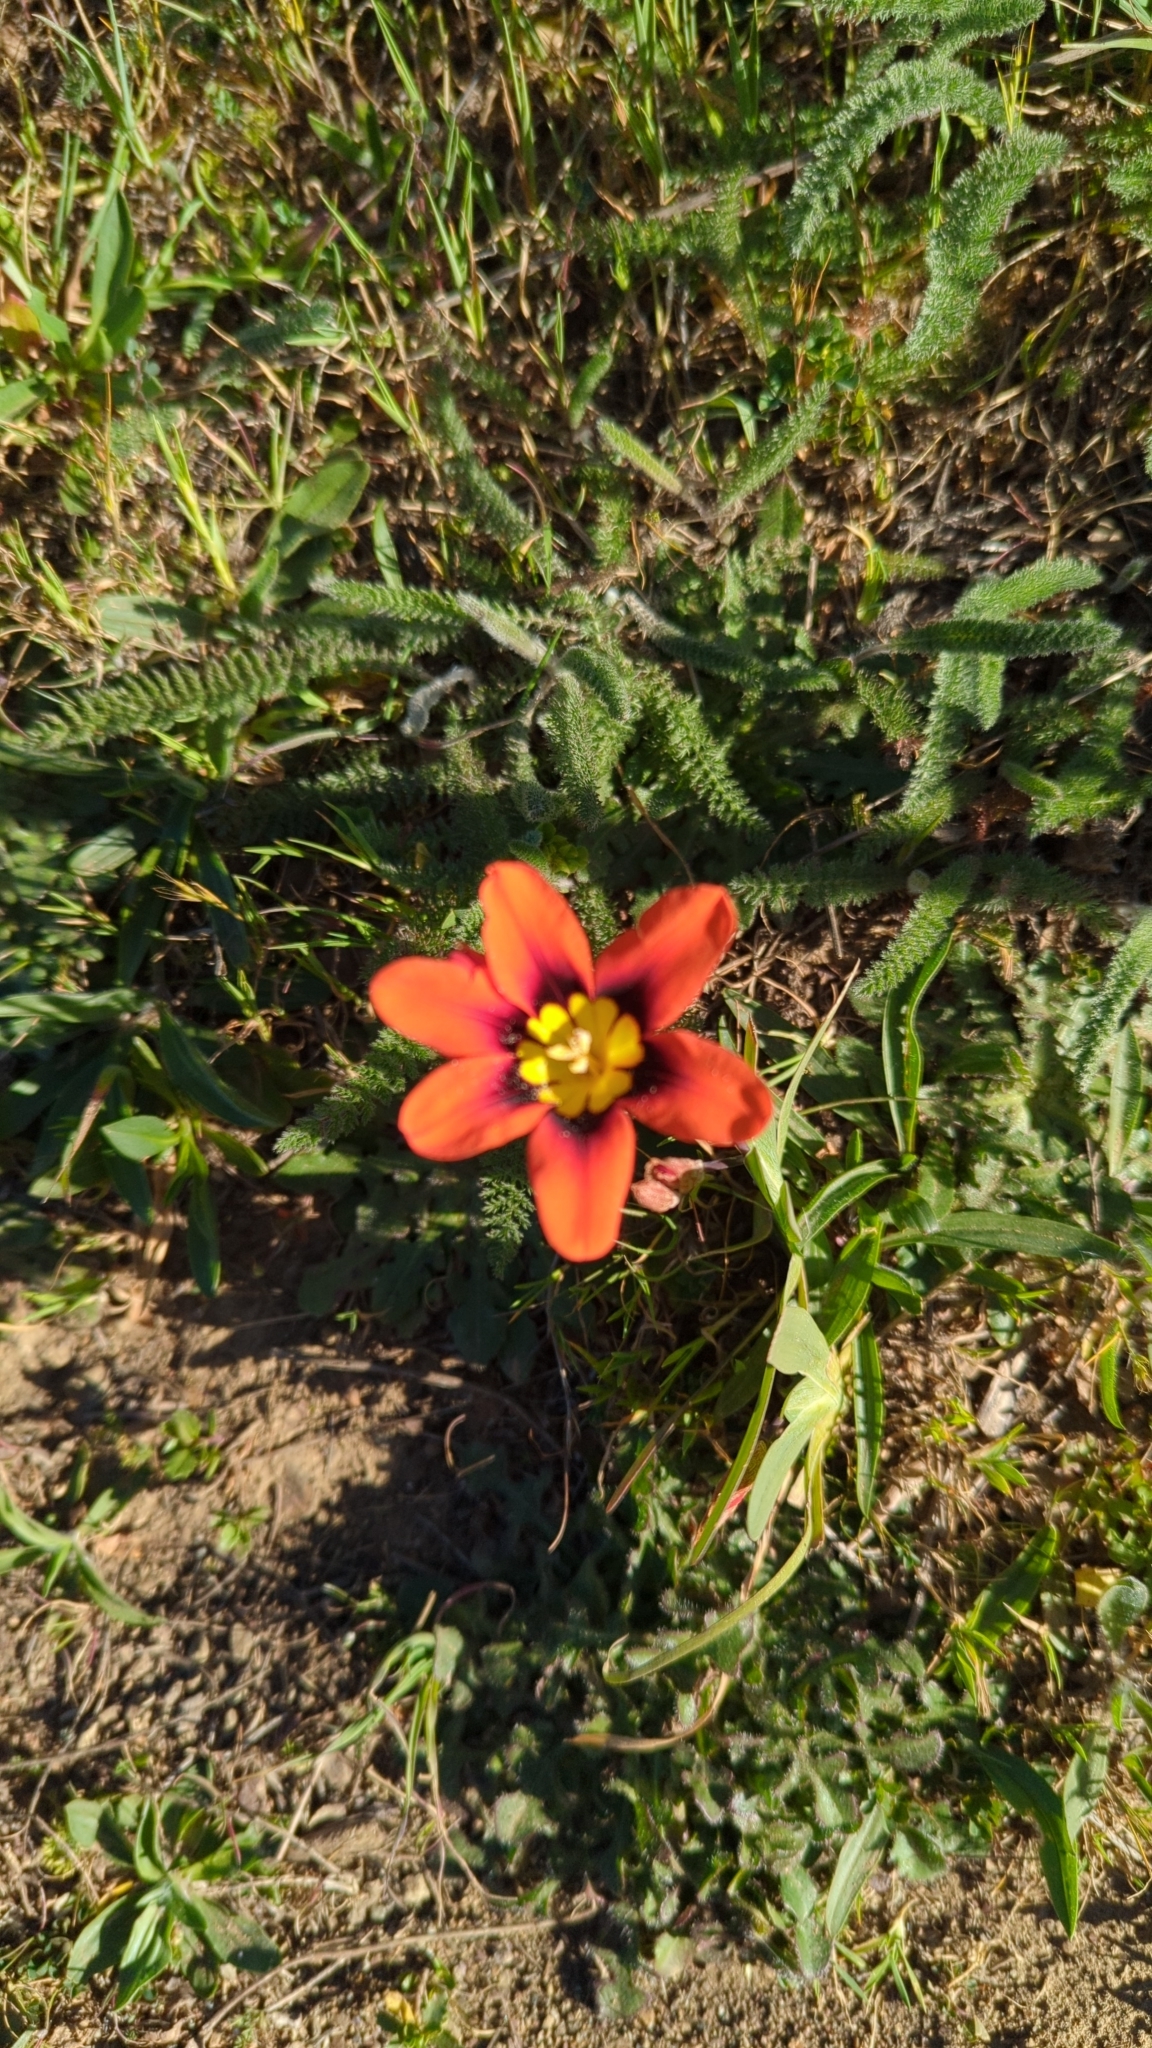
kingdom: Plantae
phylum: Tracheophyta
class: Liliopsida
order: Asparagales
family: Iridaceae
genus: Sparaxis
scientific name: Sparaxis tricolor
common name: Wandflower
